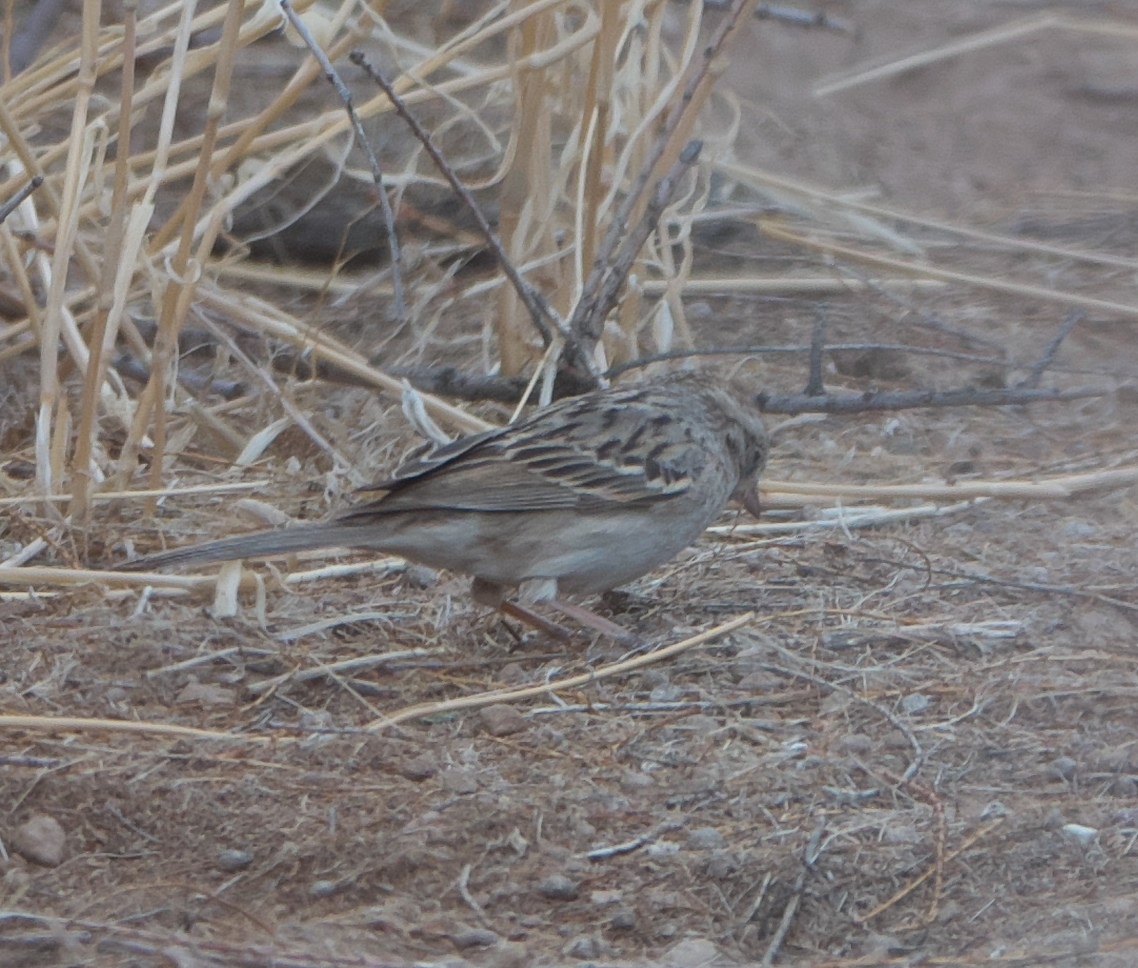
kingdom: Animalia
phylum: Chordata
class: Aves
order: Passeriformes
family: Passerellidae
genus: Spizella
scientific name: Spizella breweri
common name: Brewer's sparrow
